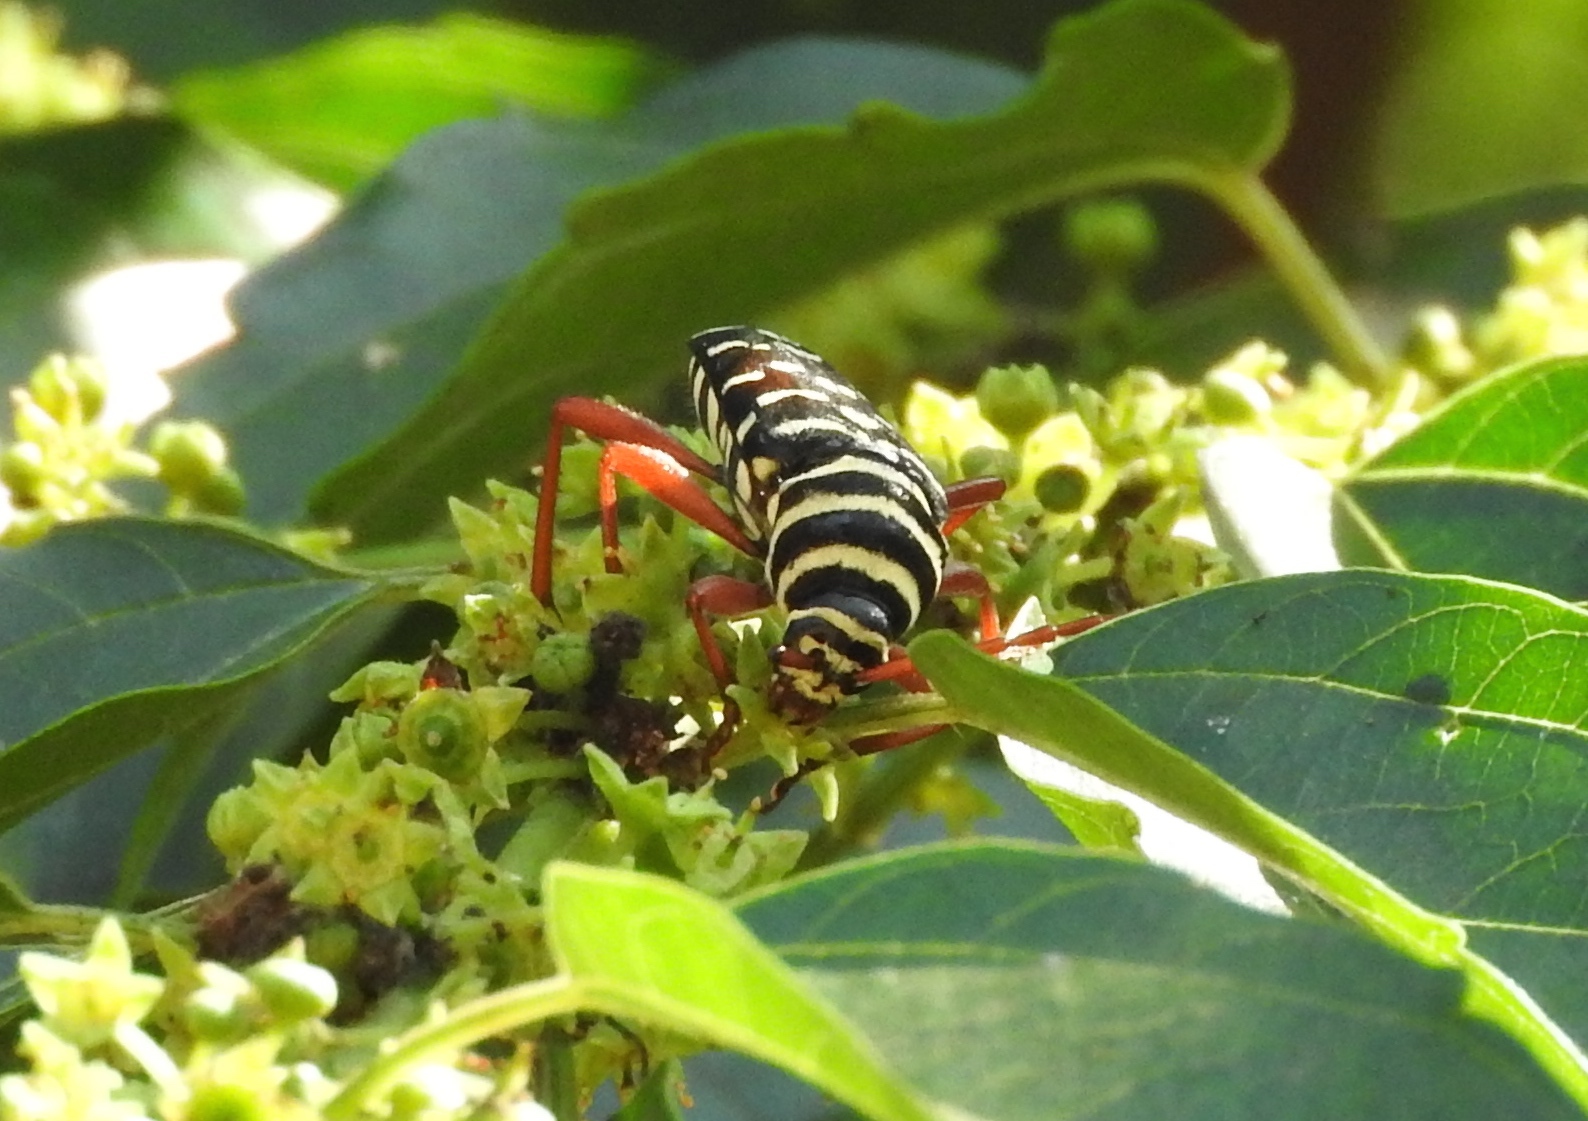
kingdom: Animalia
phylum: Arthropoda
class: Insecta
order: Coleoptera
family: Cerambycidae
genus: Placosternus
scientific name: Placosternus erythropus
